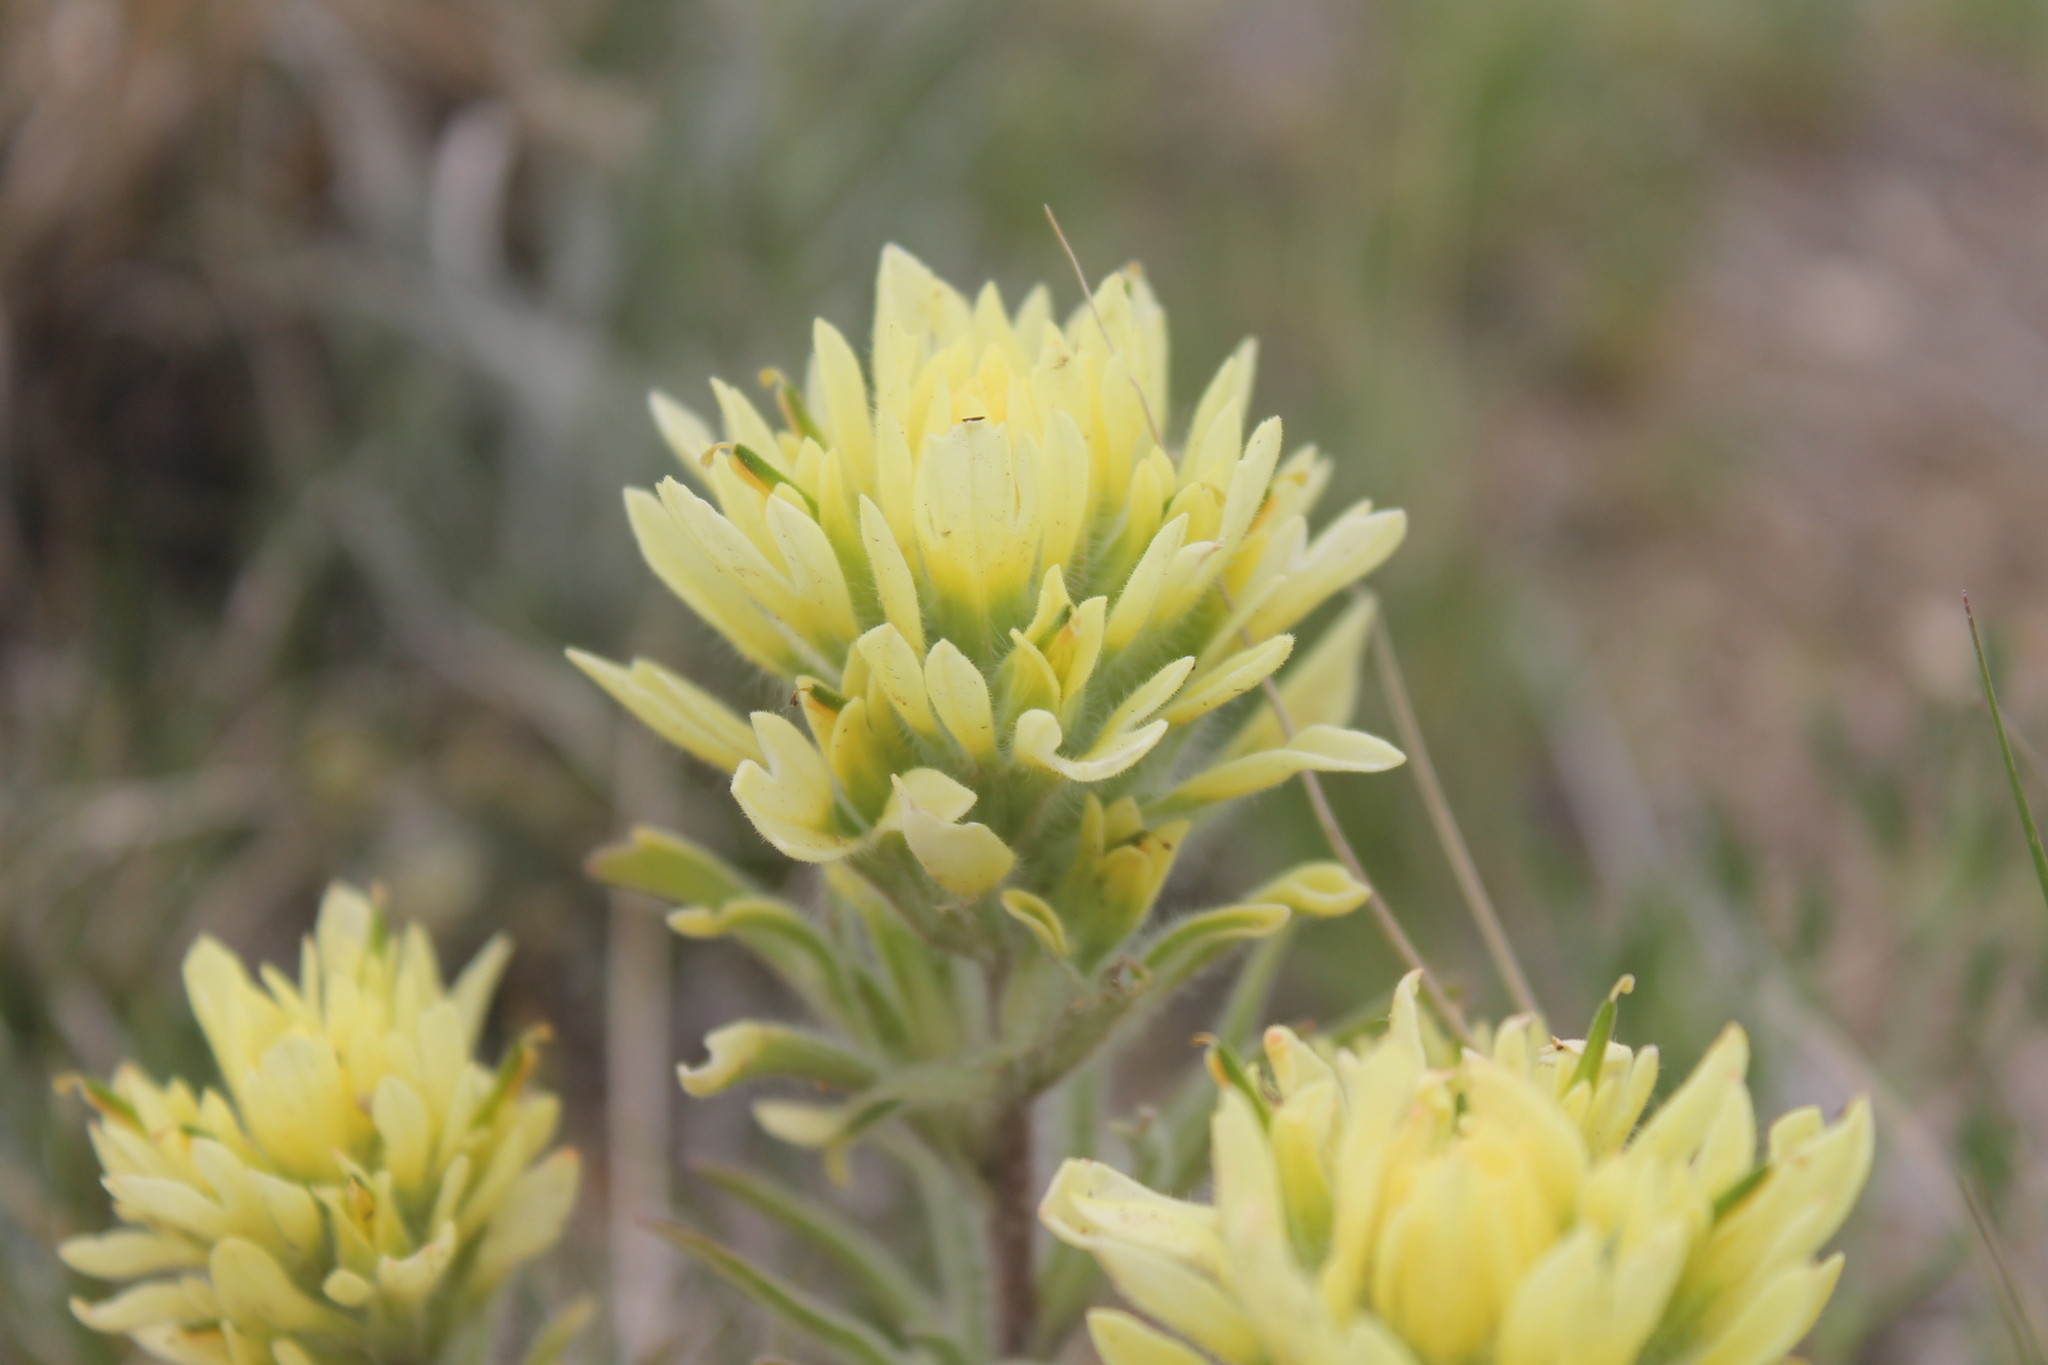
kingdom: Plantae
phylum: Tracheophyta
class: Magnoliopsida
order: Lamiales
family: Orobanchaceae
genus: Castilleja
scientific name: Castilleja angustifolia
